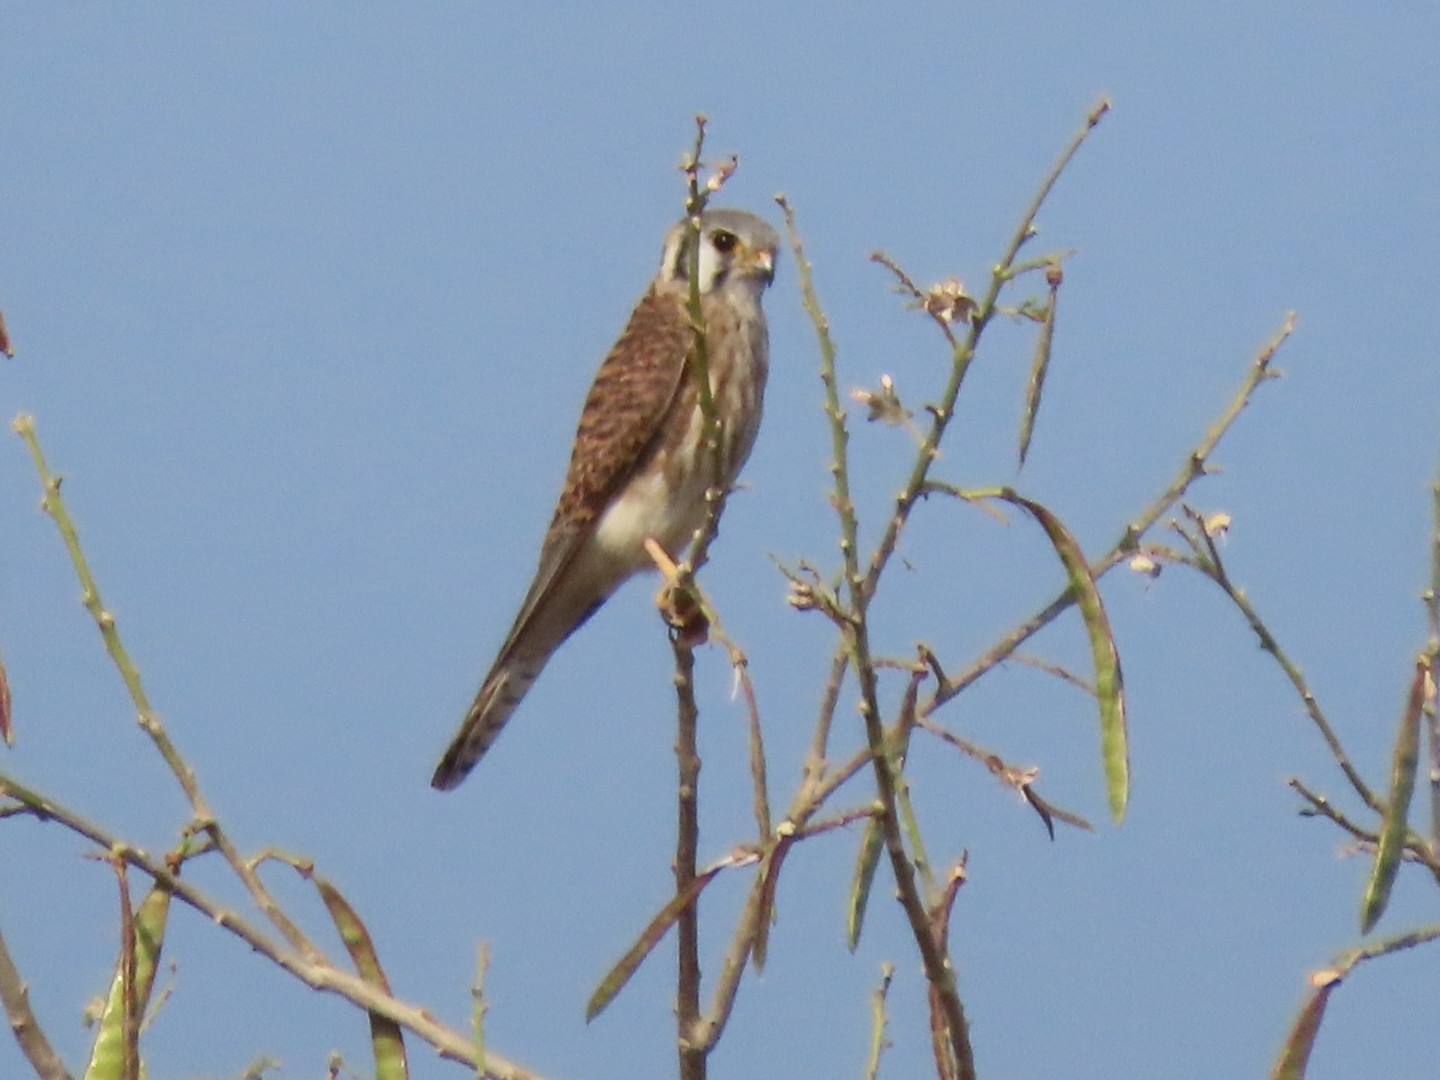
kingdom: Animalia
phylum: Chordata
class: Aves
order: Falconiformes
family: Falconidae
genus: Falco
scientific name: Falco sparverius
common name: American kestrel
